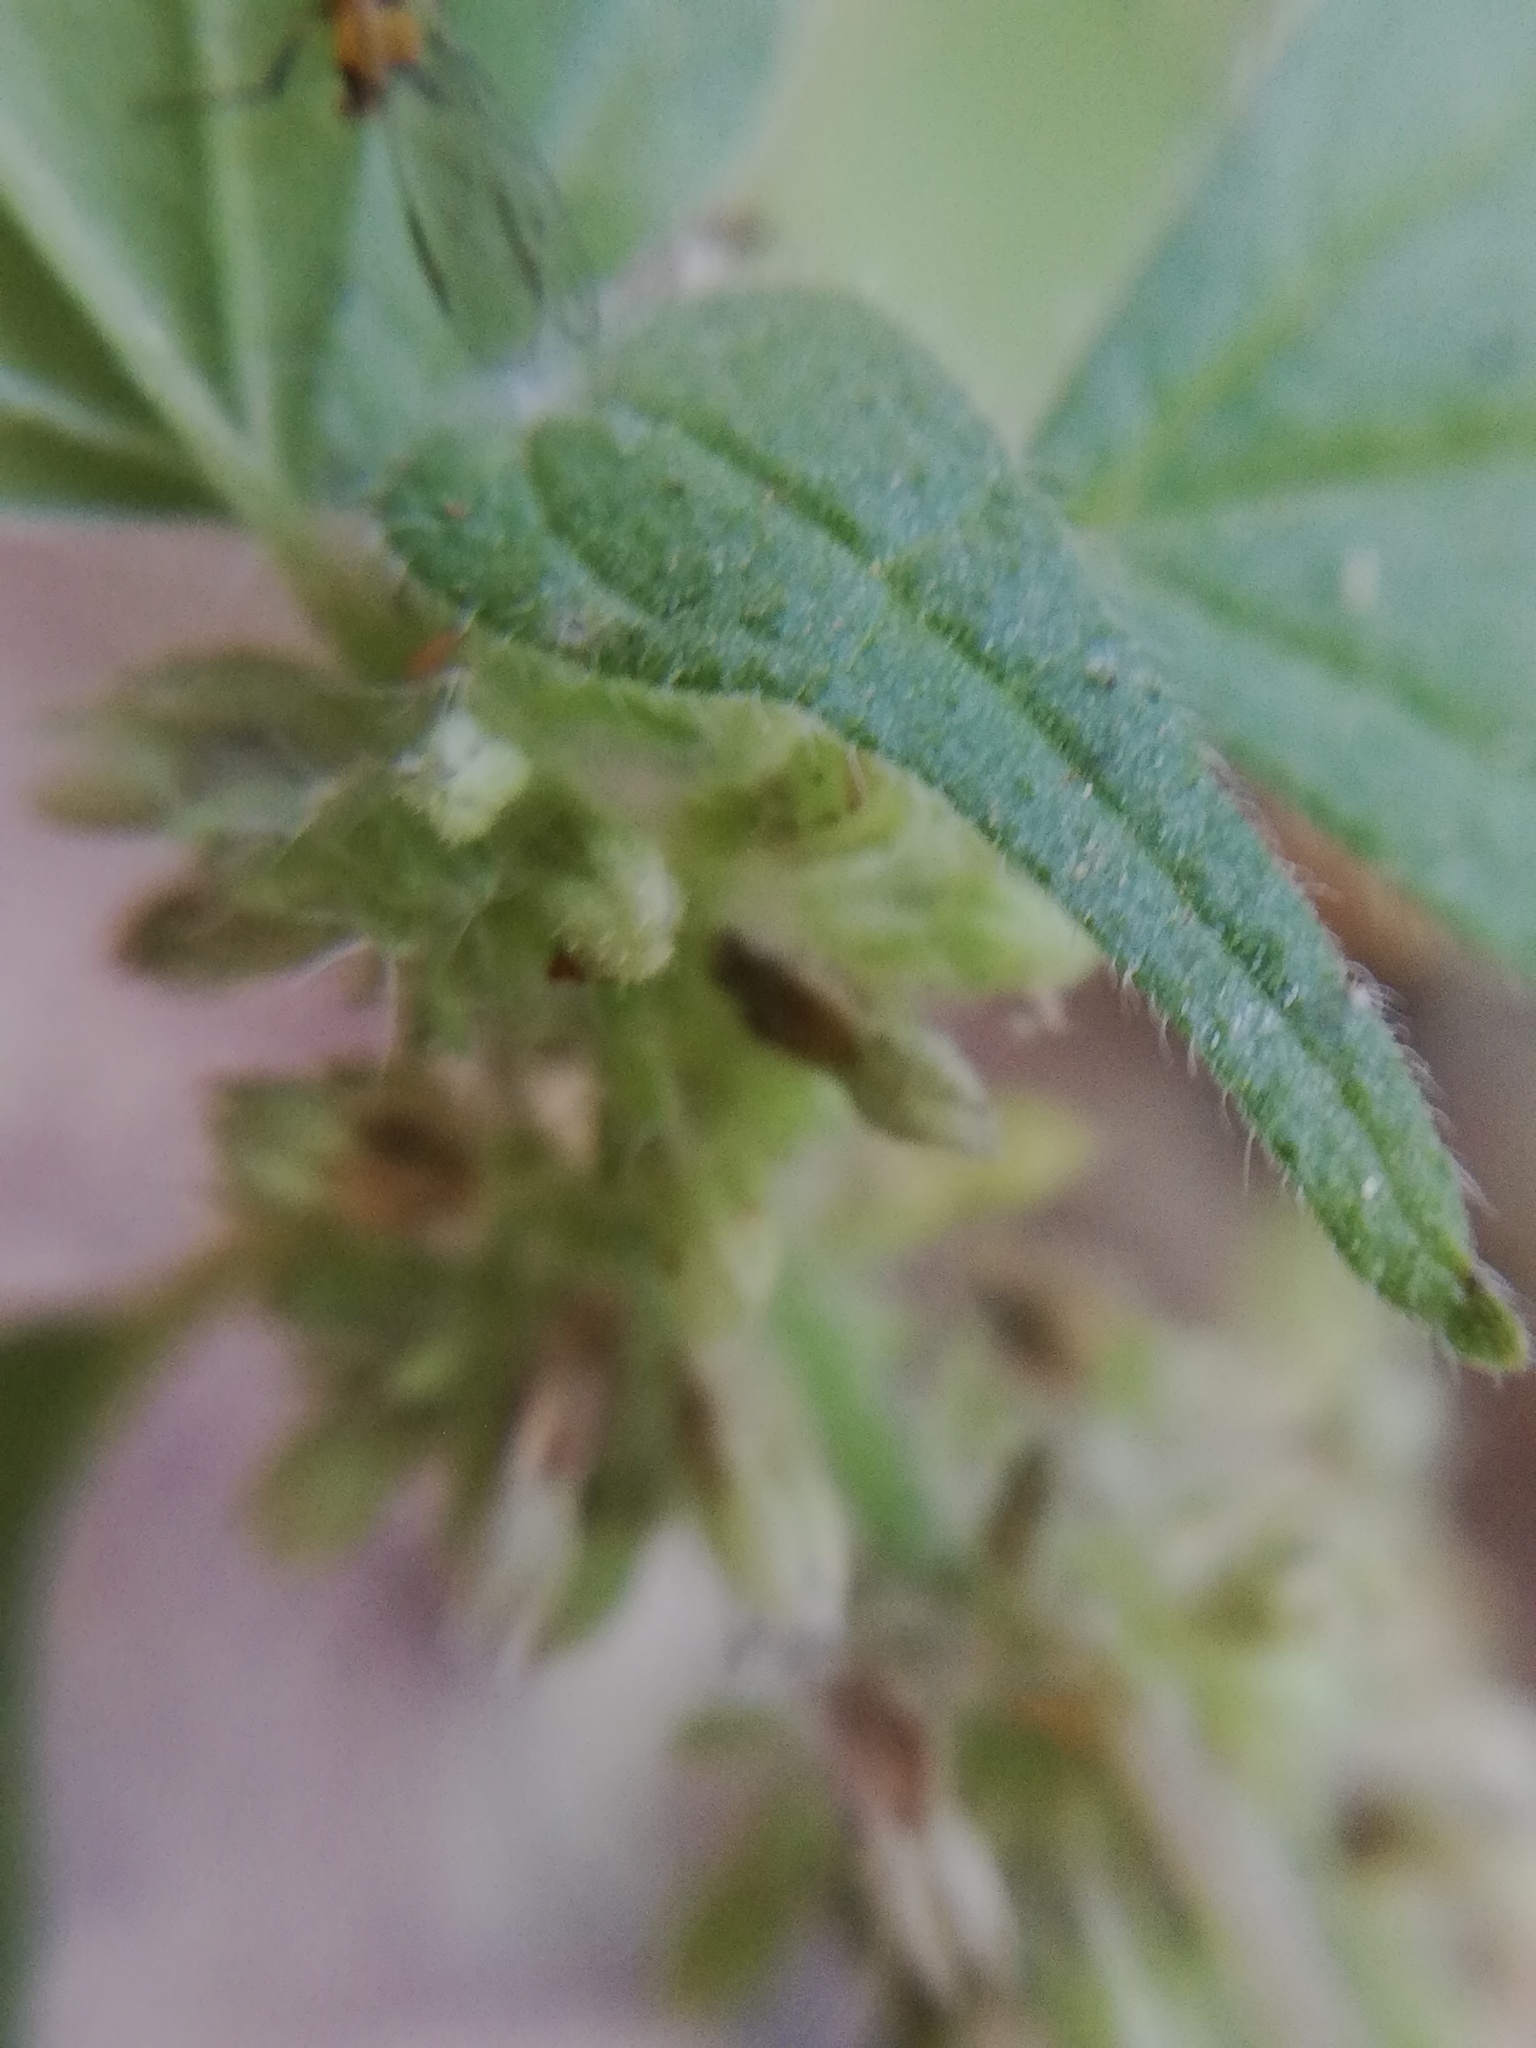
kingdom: Plantae
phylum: Tracheophyta
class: Magnoliopsida
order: Rosales
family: Urticaceae
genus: Parietaria
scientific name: Parietaria officinalis
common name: Eastern pellitory-of-the-wall
